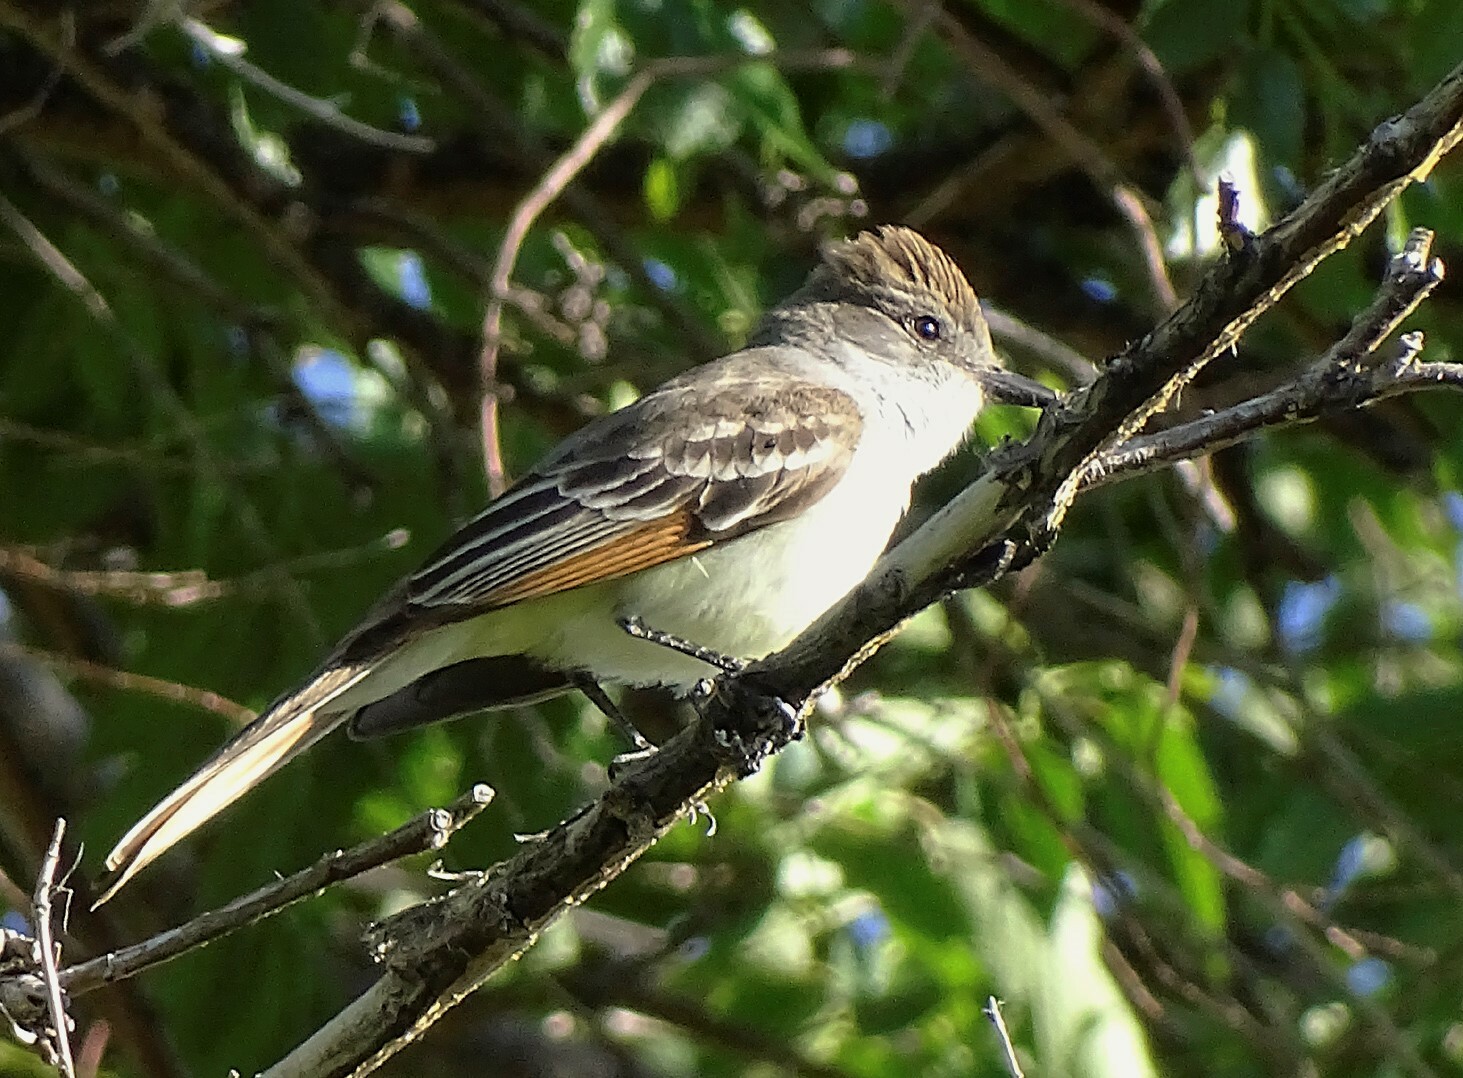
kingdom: Animalia
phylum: Chordata
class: Aves
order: Passeriformes
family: Tyrannidae
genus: Myiarchus
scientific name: Myiarchus cinerascens
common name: Ash-throated flycatcher
